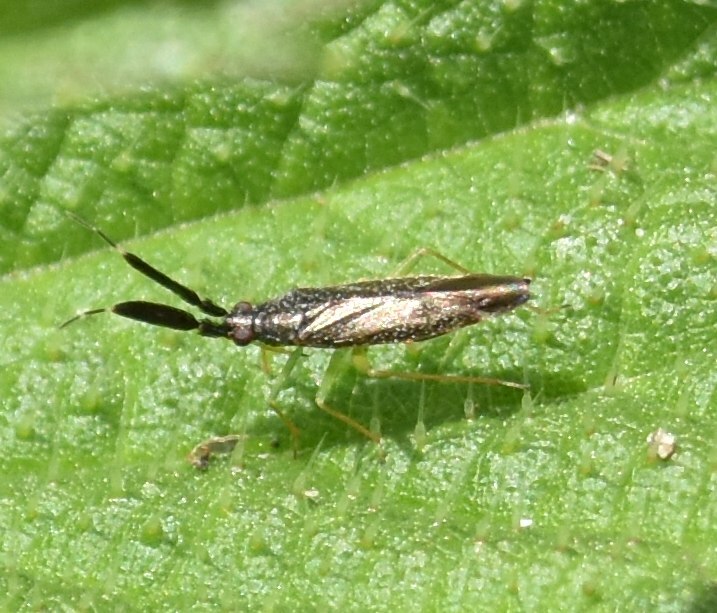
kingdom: Animalia
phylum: Arthropoda
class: Insecta
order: Hemiptera
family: Miridae
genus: Heterotoma
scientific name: Heterotoma planicornis
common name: Plant bug
